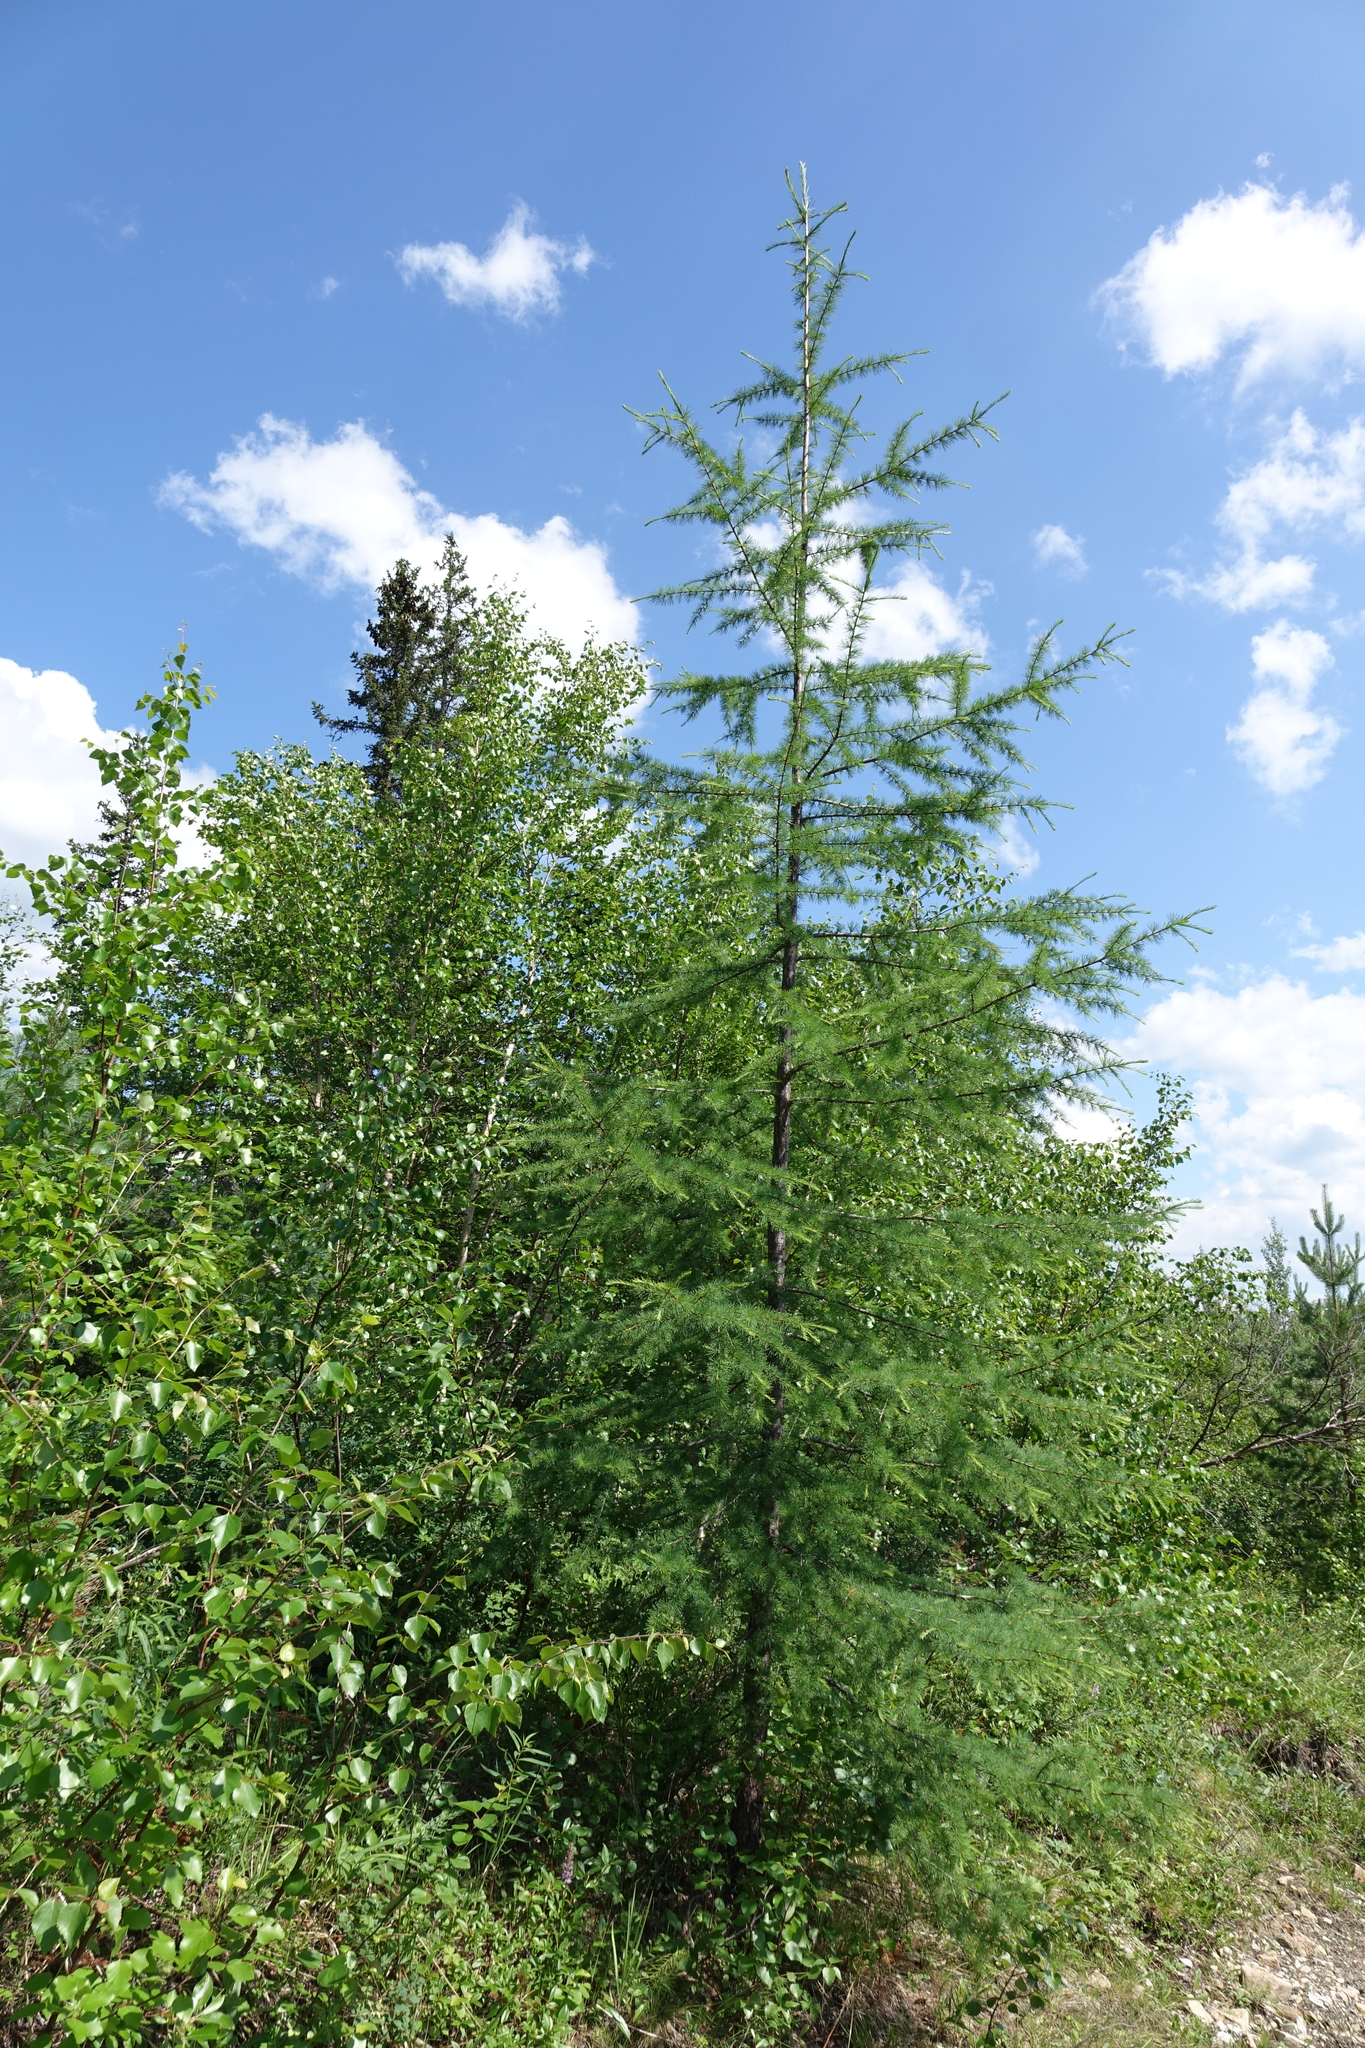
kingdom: Plantae
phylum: Tracheophyta
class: Pinopsida
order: Pinales
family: Pinaceae
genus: Larix
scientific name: Larix gmelinii
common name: Dahurian larch
